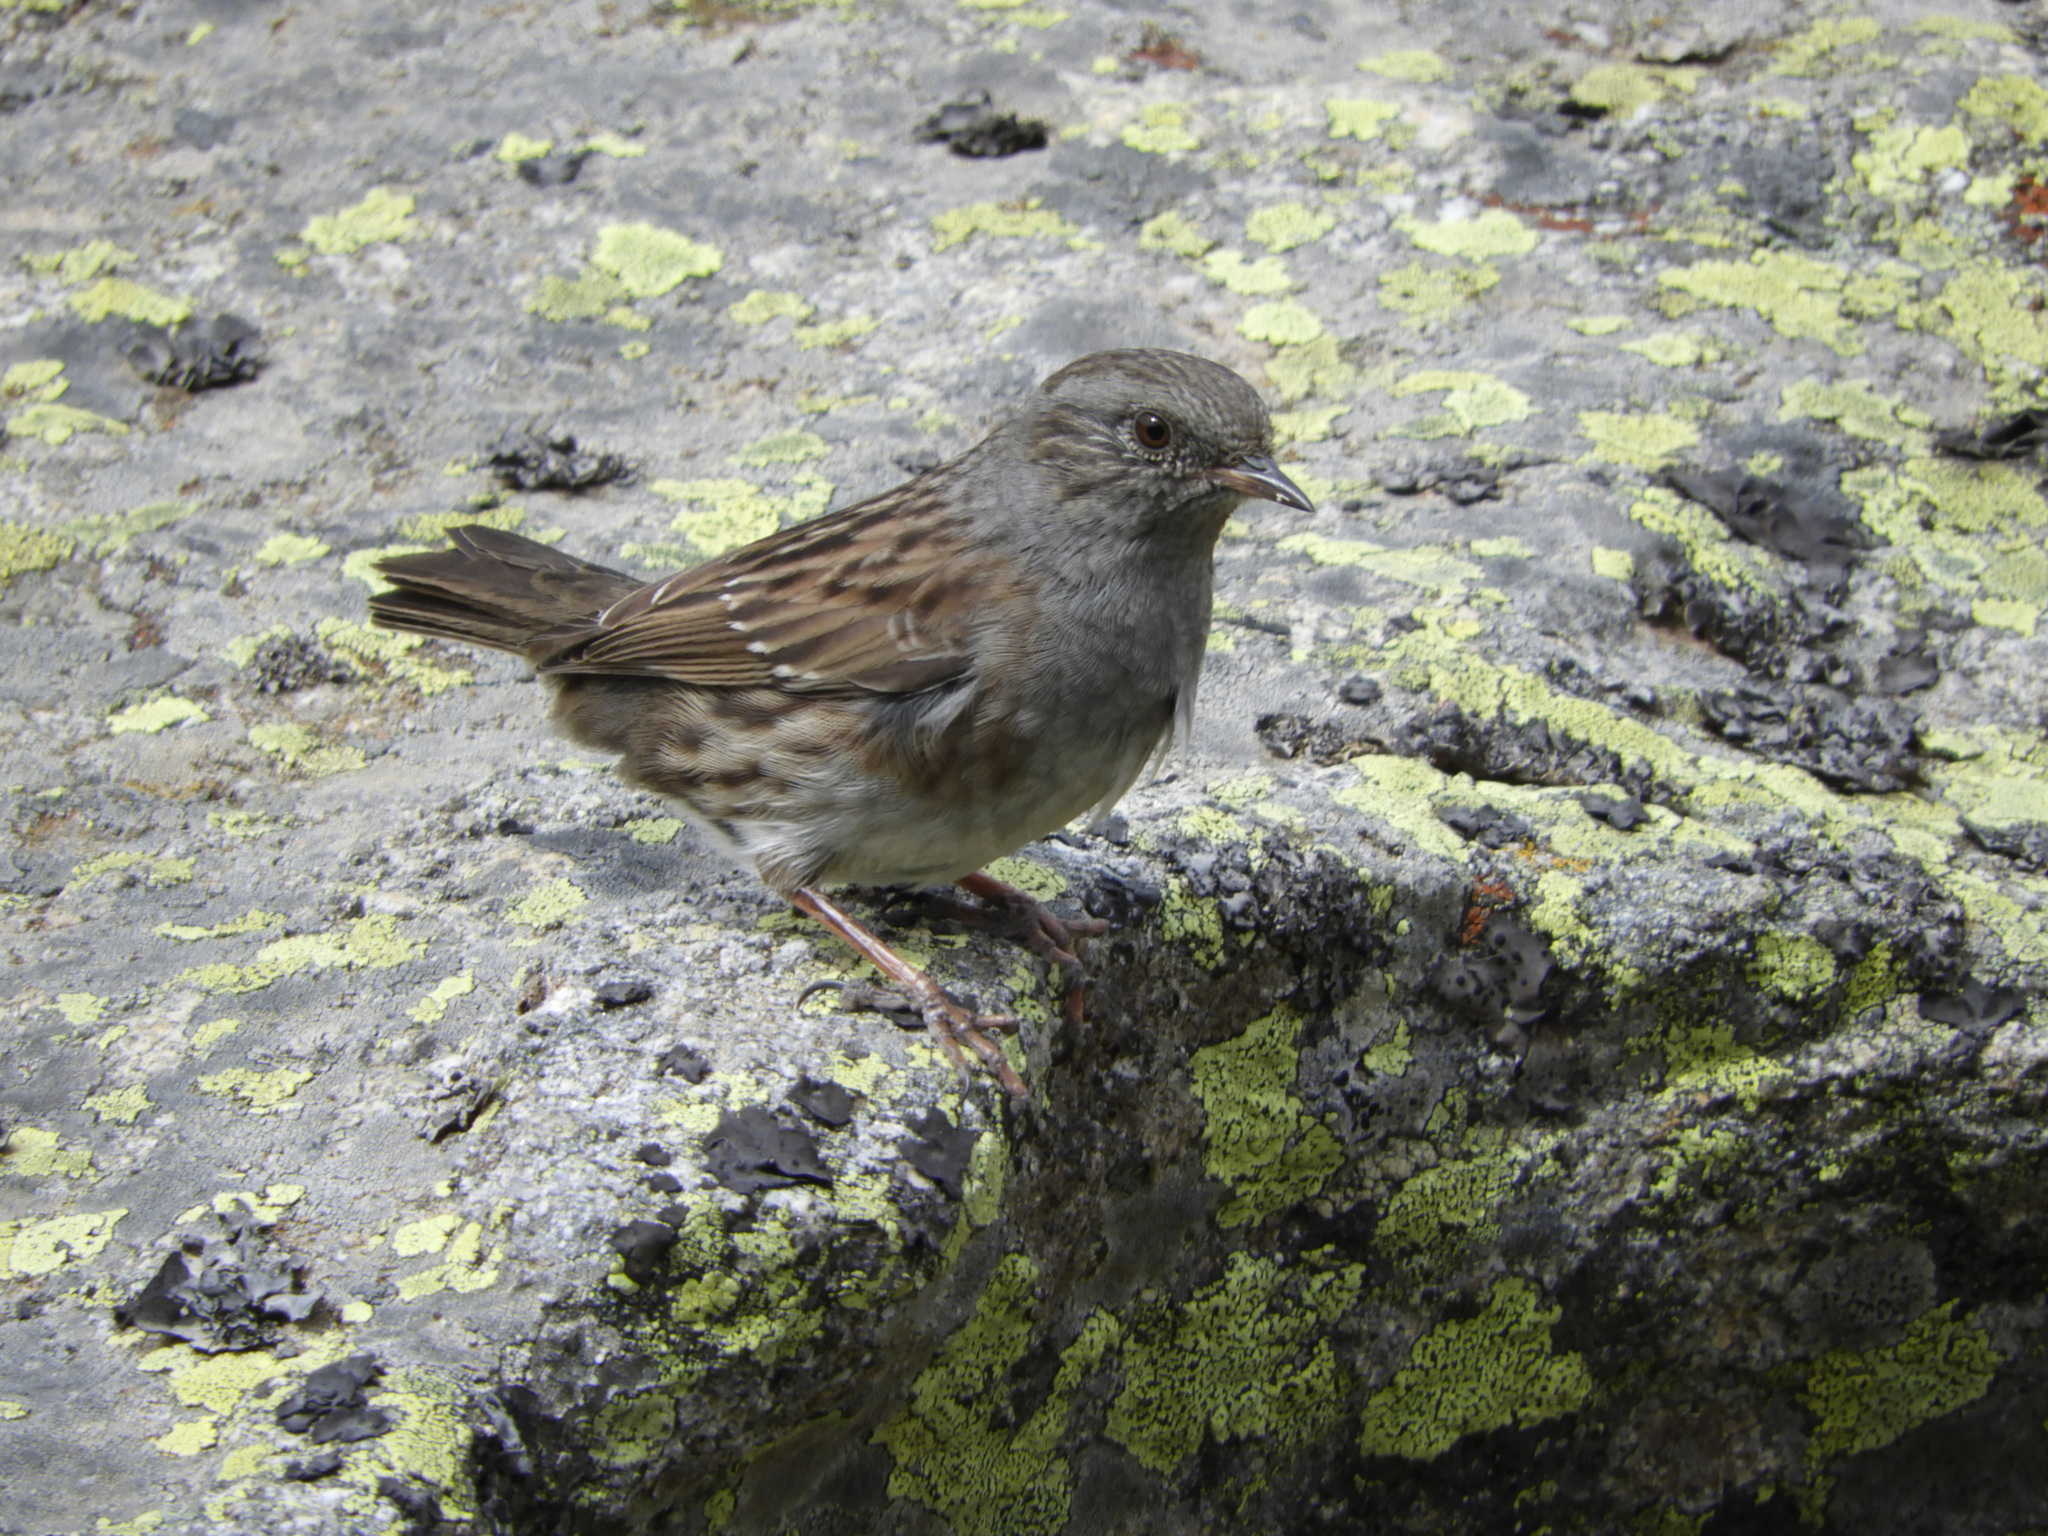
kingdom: Animalia
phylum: Chordata
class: Aves
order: Passeriformes
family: Prunellidae
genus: Prunella
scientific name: Prunella modularis
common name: Dunnock
